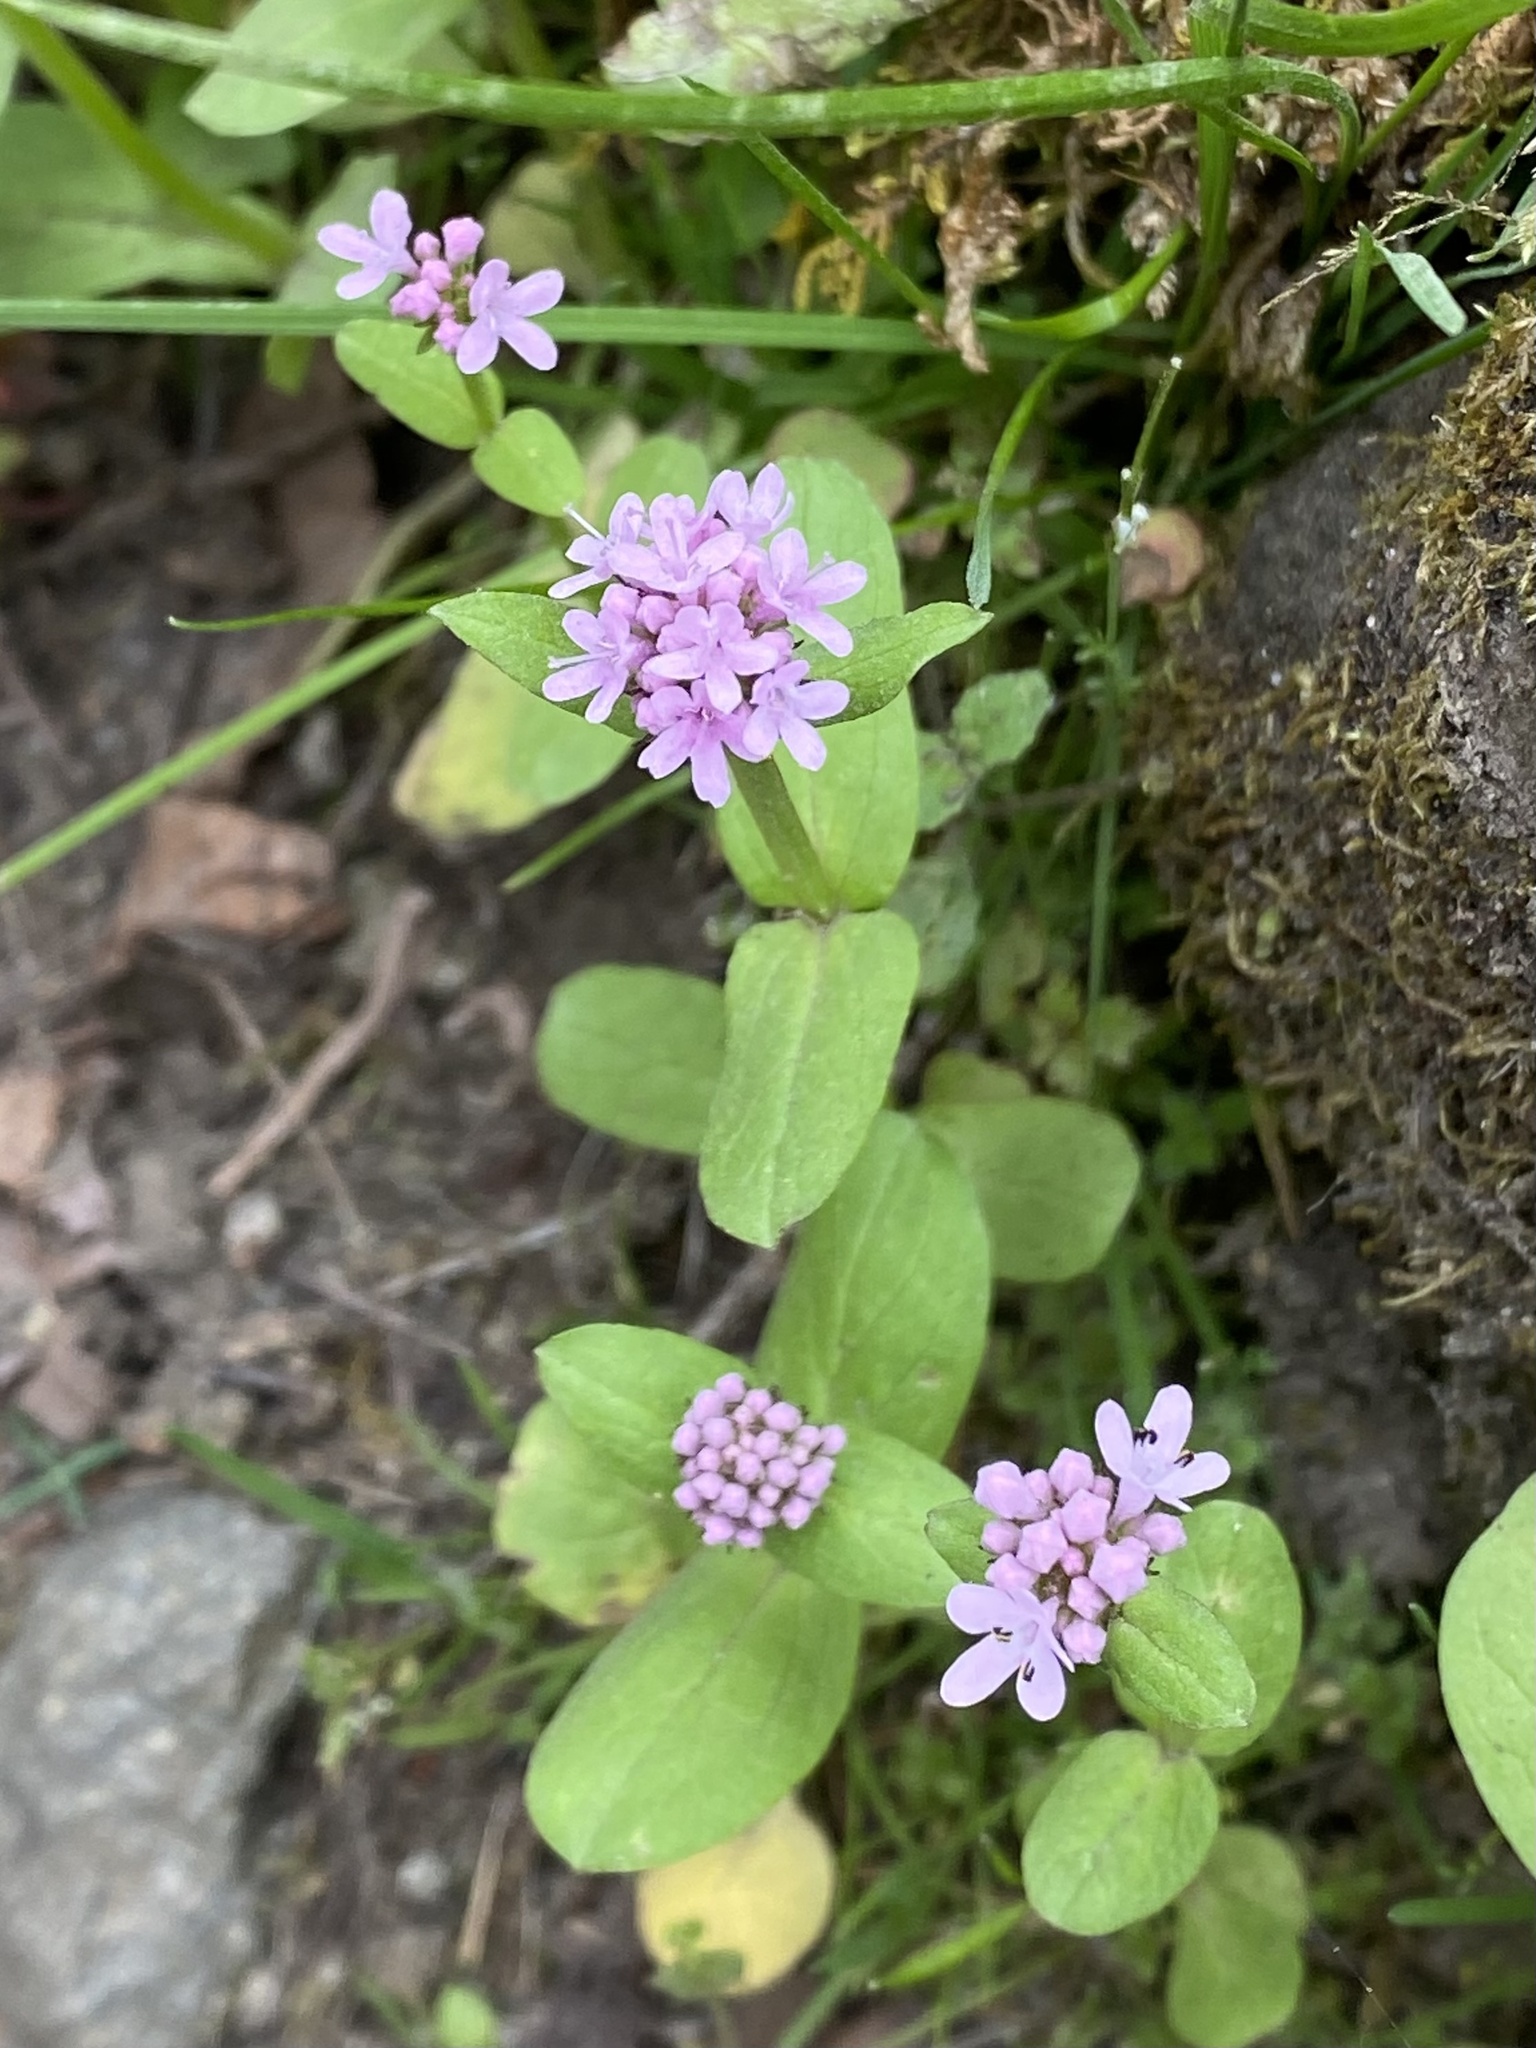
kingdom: Plantae
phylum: Tracheophyta
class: Magnoliopsida
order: Dipsacales
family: Caprifoliaceae
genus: Plectritis
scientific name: Plectritis congesta
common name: Pink plectritis
